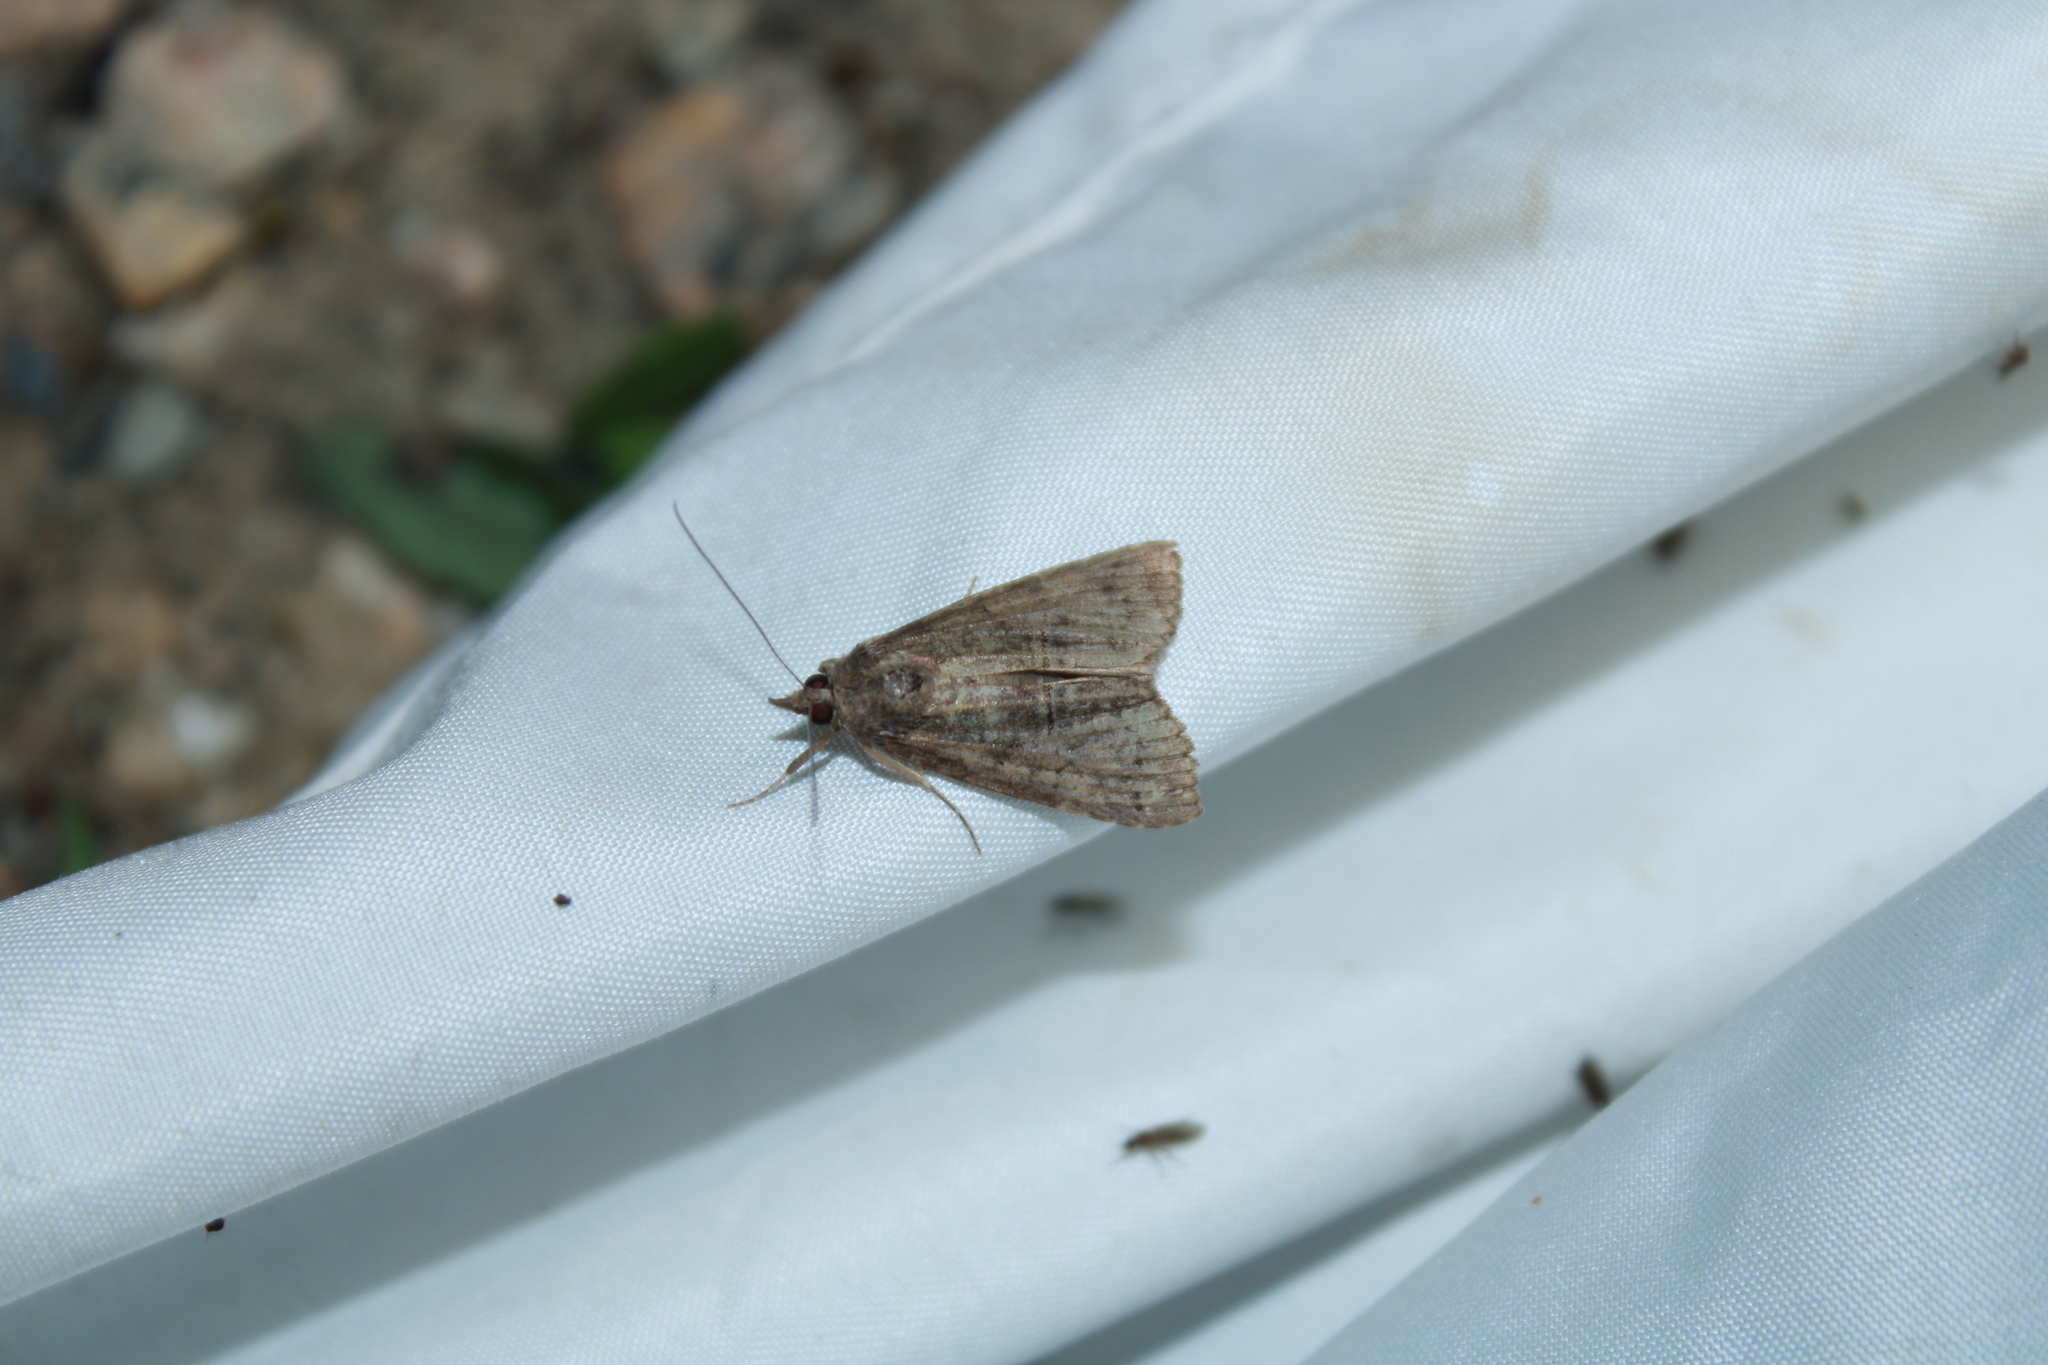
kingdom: Animalia
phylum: Arthropoda
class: Insecta
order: Lepidoptera
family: Erebidae
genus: Hypena
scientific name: Hypena scabra
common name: Green cloverworm
